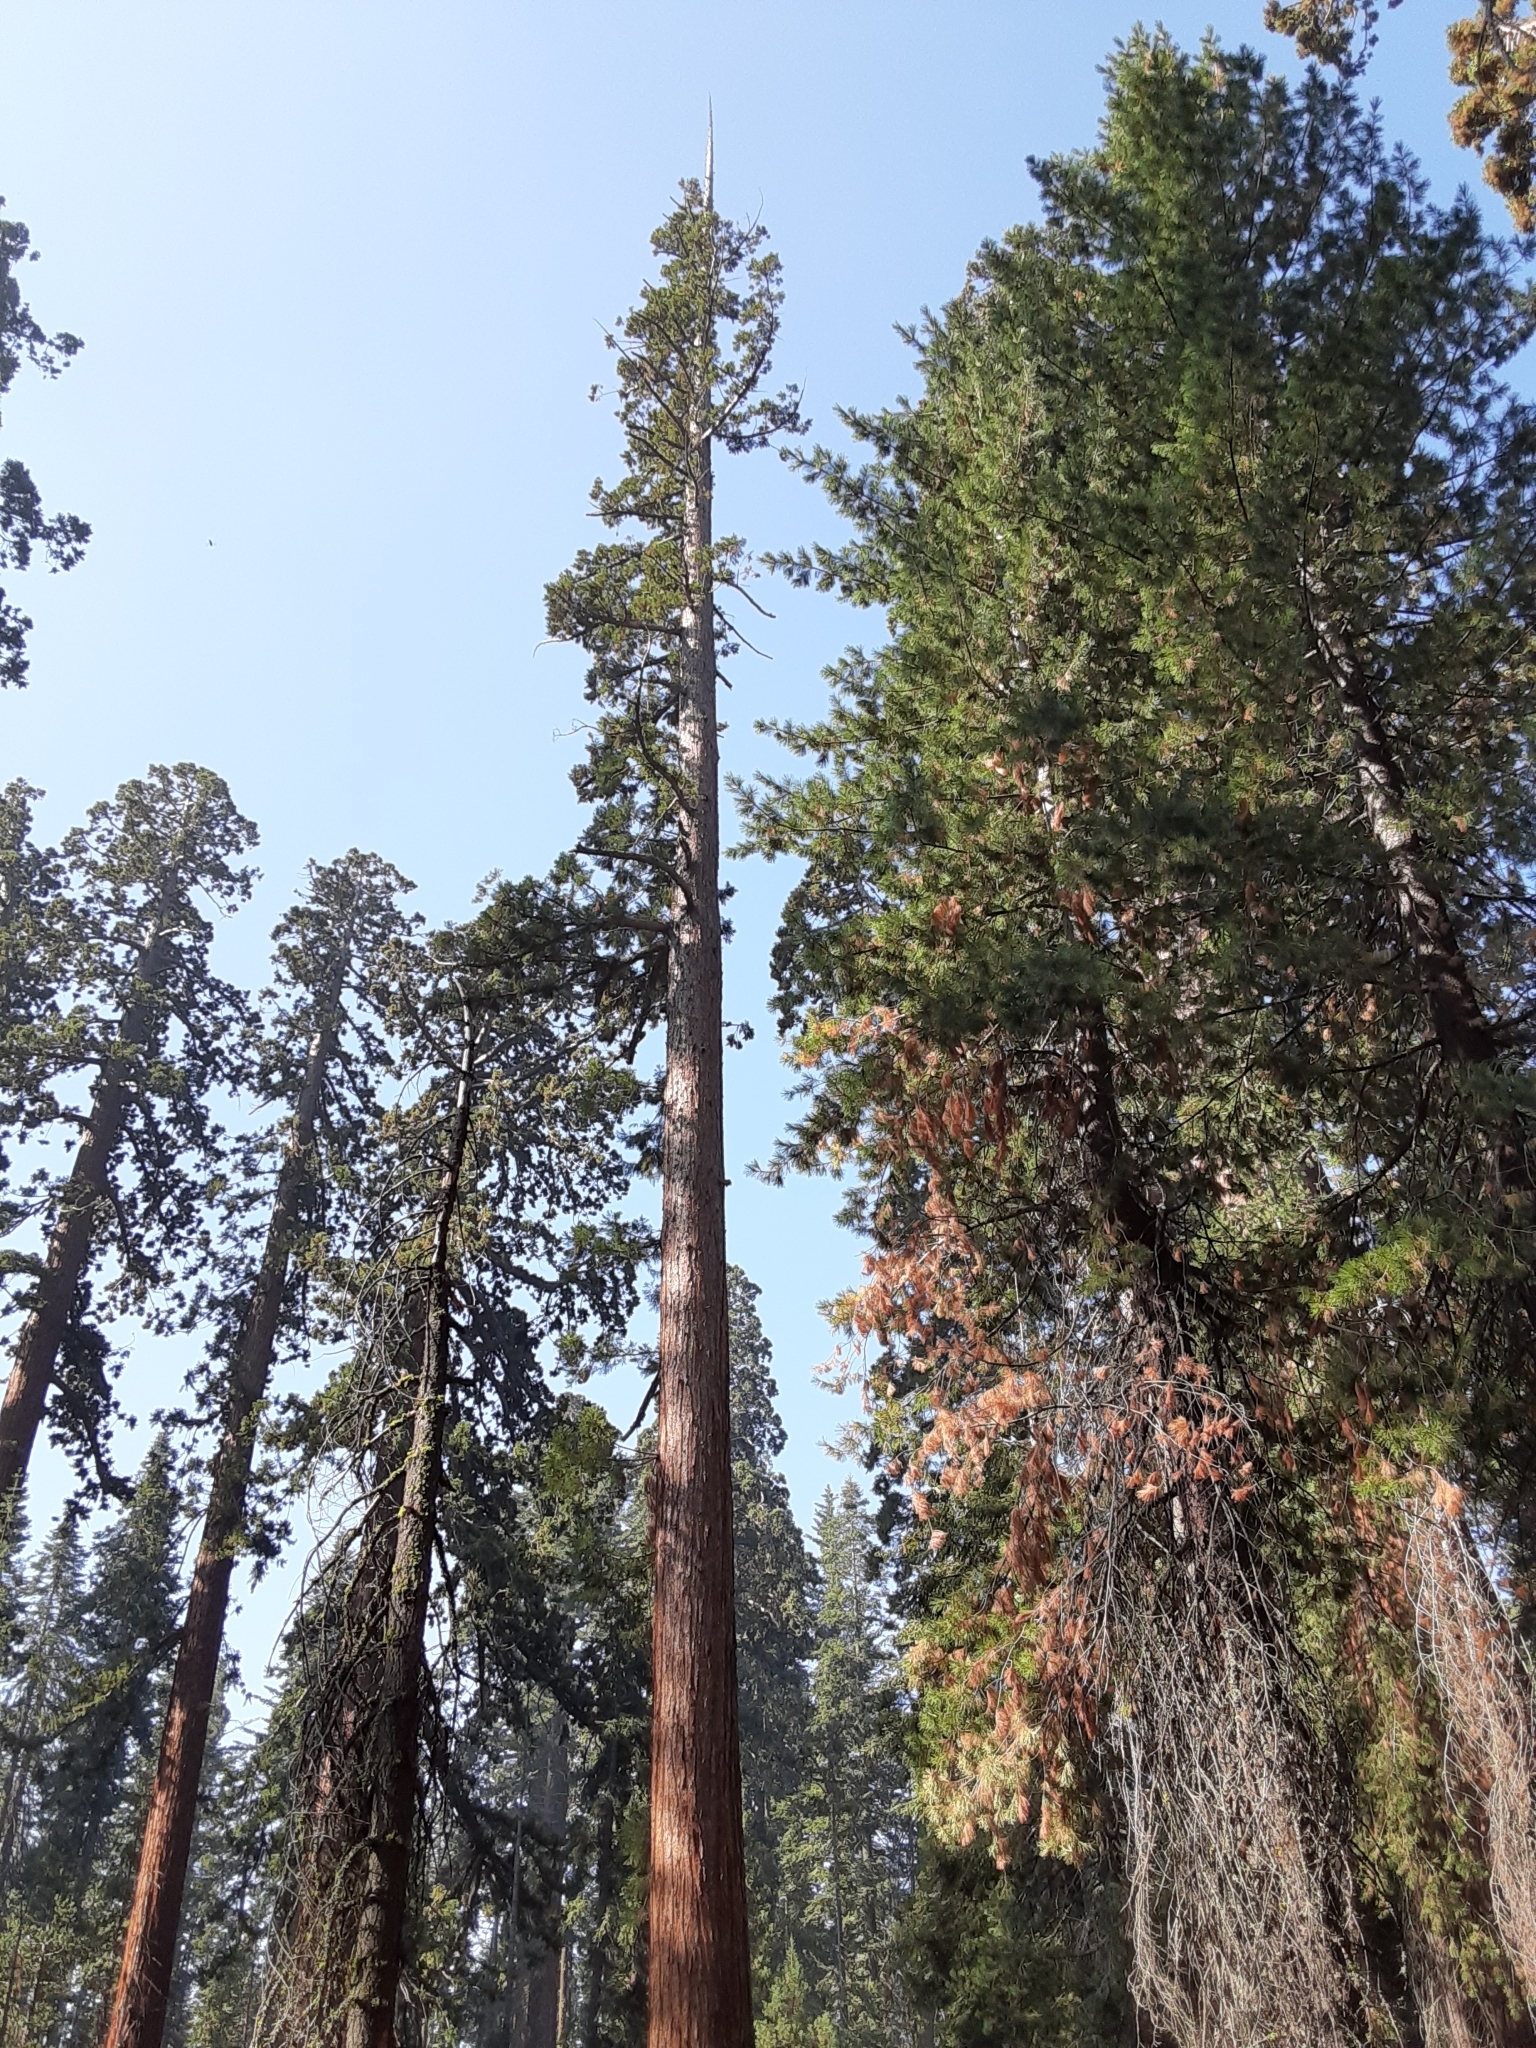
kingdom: Plantae
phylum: Tracheophyta
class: Pinopsida
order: Pinales
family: Cupressaceae
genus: Sequoiadendron
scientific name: Sequoiadendron giganteum
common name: Wellingtonia
